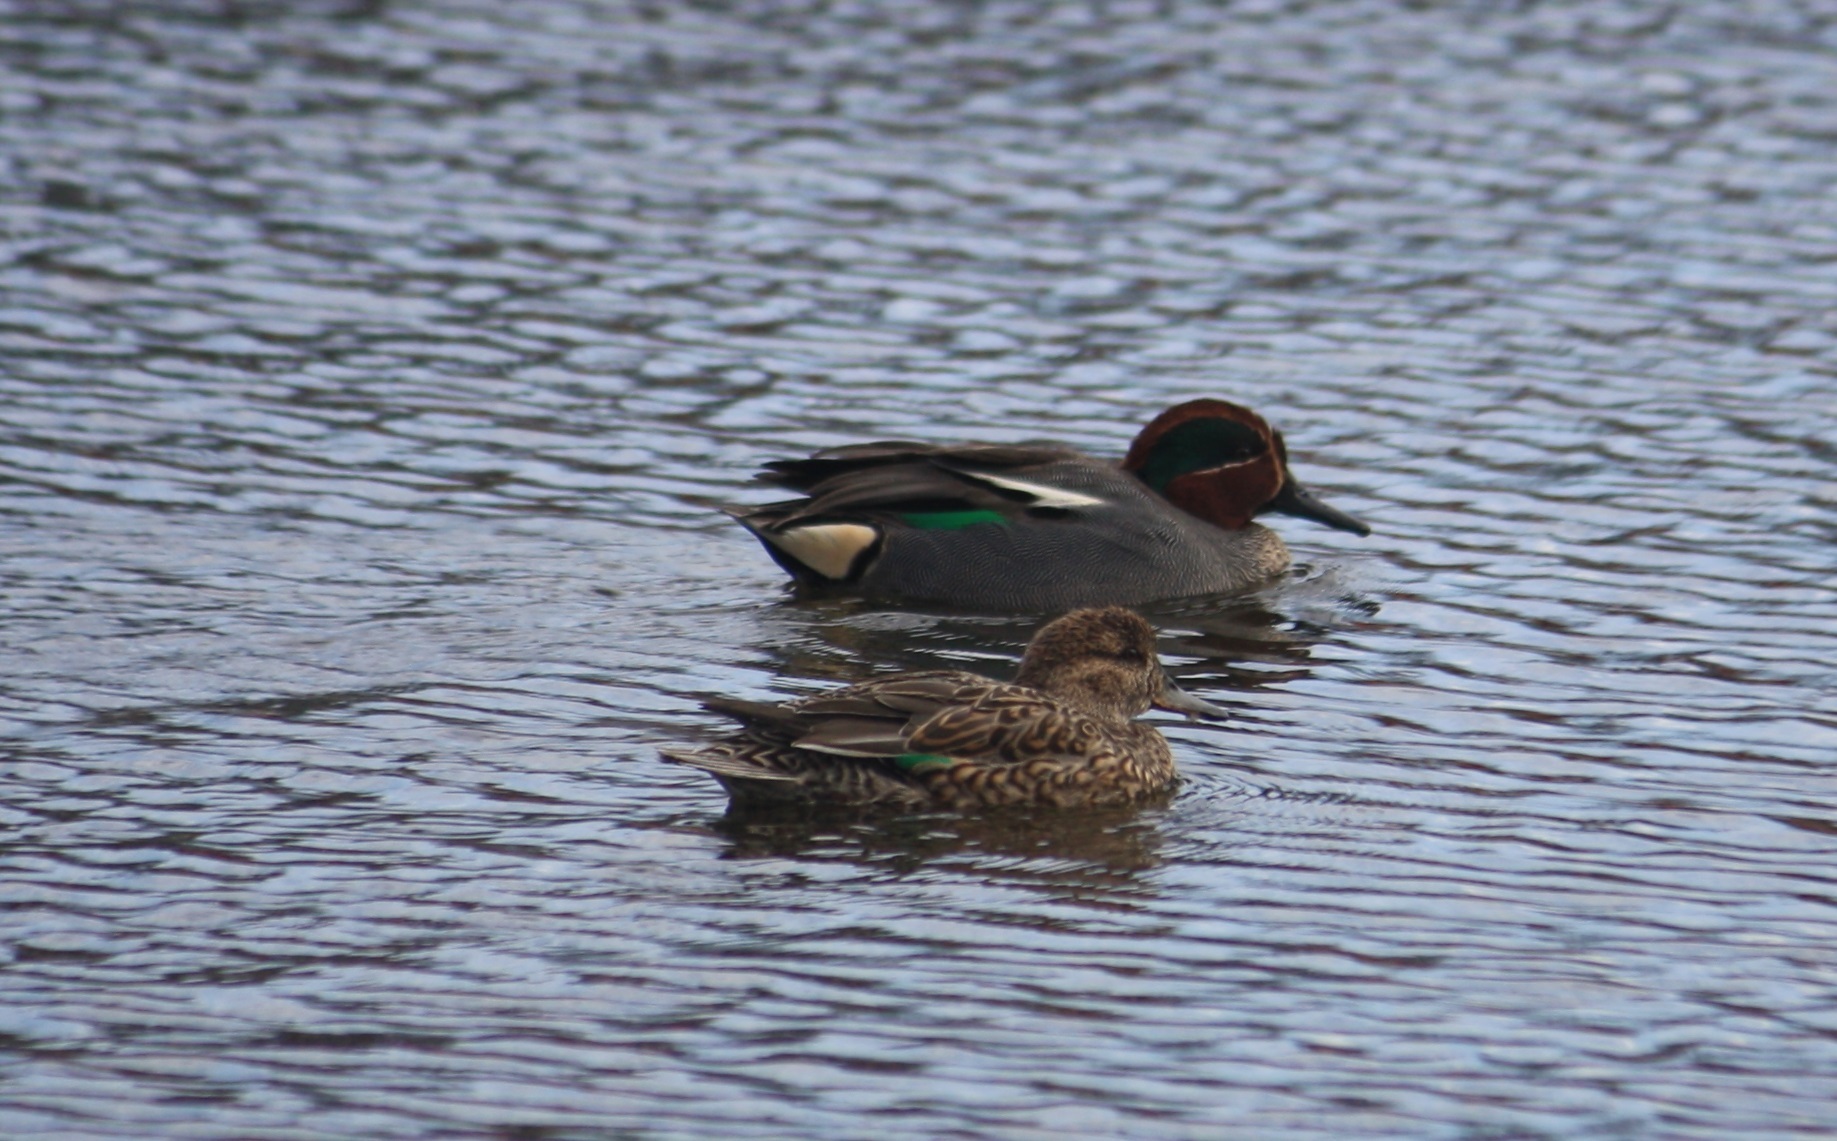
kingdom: Animalia
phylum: Chordata
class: Aves
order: Anseriformes
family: Anatidae
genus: Anas
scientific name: Anas crecca
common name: Eurasian teal
